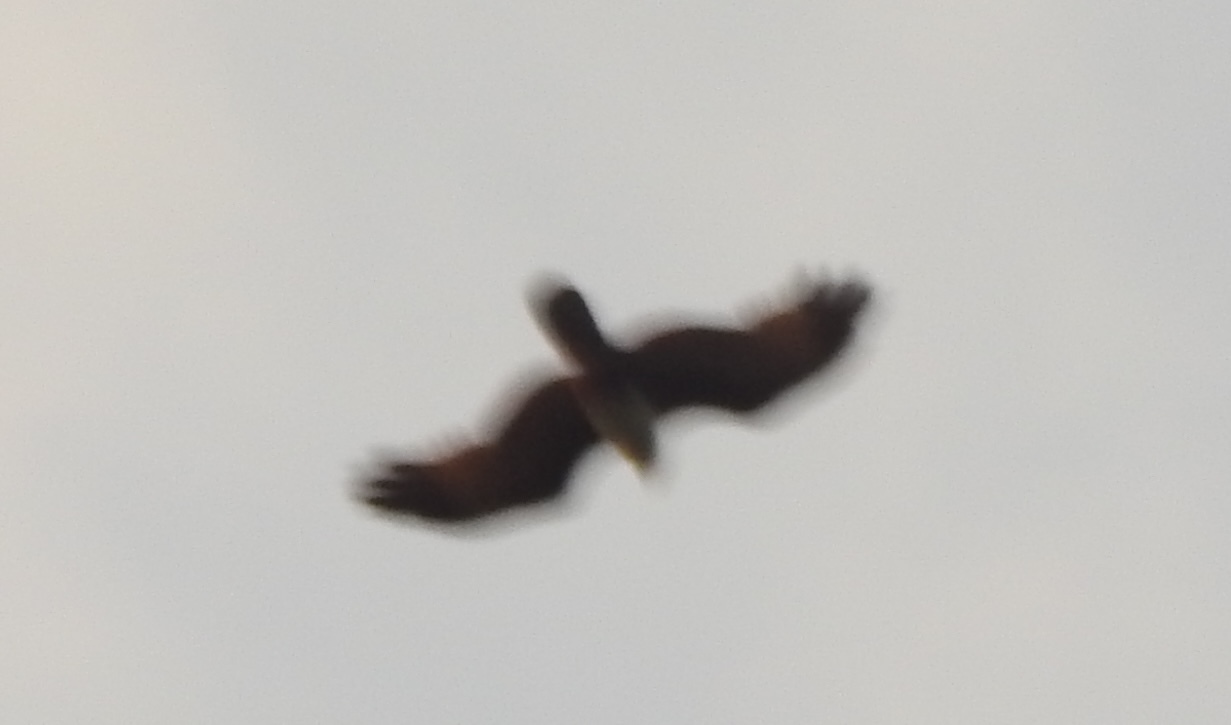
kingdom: Animalia
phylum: Chordata
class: Aves
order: Accipitriformes
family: Accipitridae
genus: Haliastur
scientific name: Haliastur indus
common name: Brahminy kite
